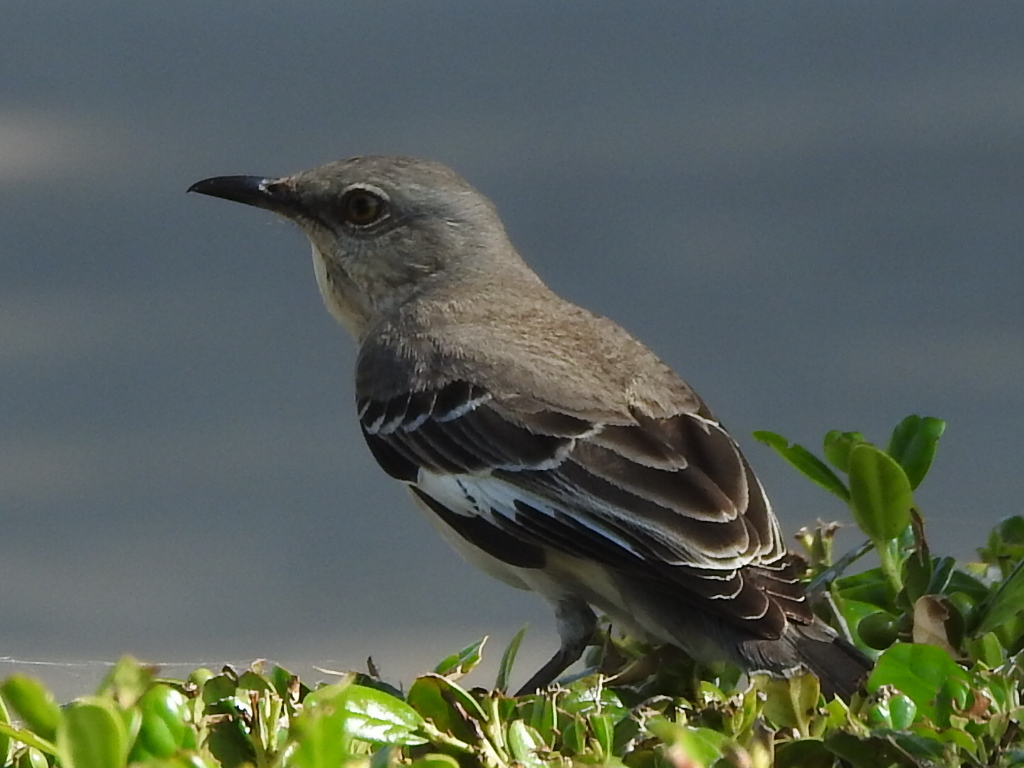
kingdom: Animalia
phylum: Chordata
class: Aves
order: Passeriformes
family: Mimidae
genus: Mimus
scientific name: Mimus polyglottos
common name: Northern mockingbird
